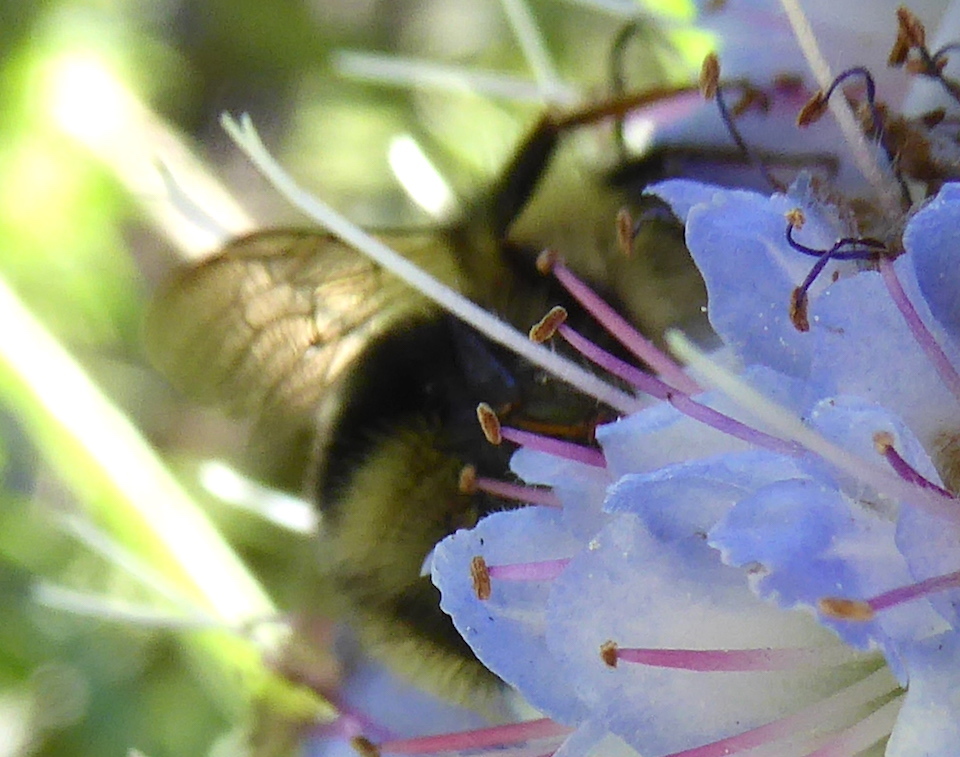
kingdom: Animalia
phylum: Arthropoda
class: Insecta
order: Hymenoptera
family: Apidae
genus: Bombus
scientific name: Bombus melanopygus
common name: Black tail bumble bee
